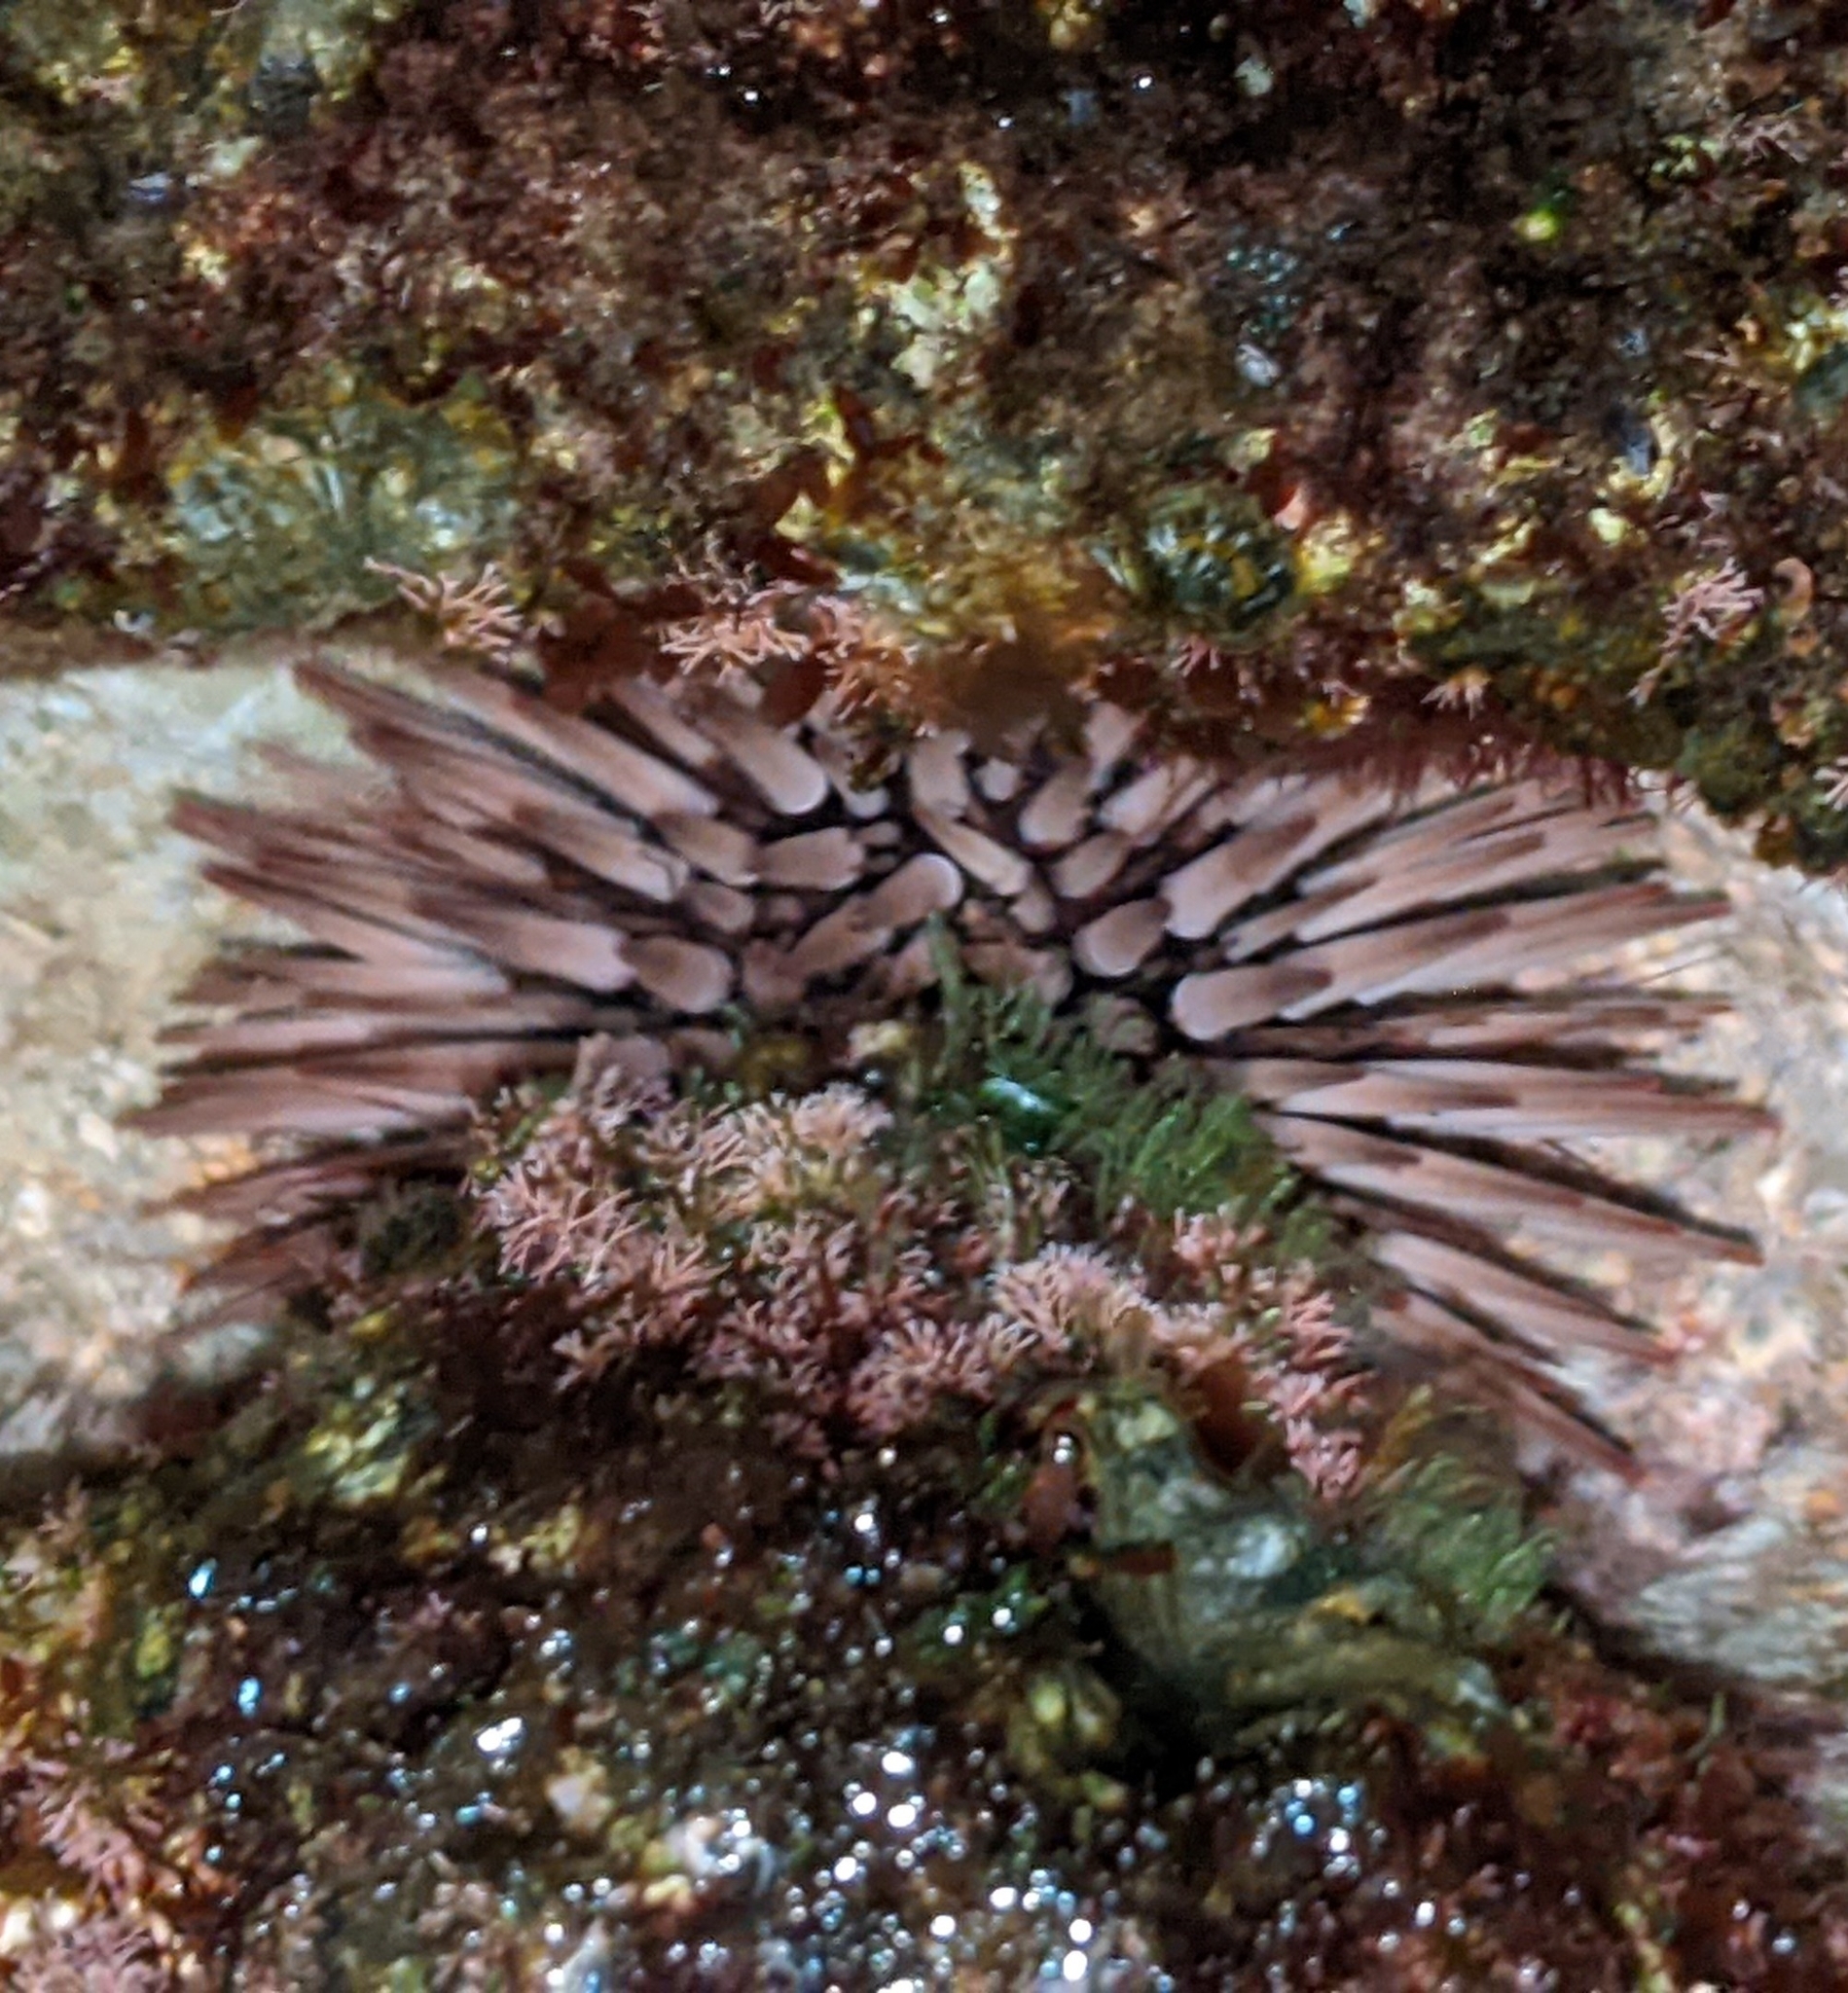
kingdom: Animalia
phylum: Echinodermata
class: Echinoidea
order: Camarodonta
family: Echinometridae
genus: Echinometra
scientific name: Echinometra mathaei
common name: Rock-boring urchin
